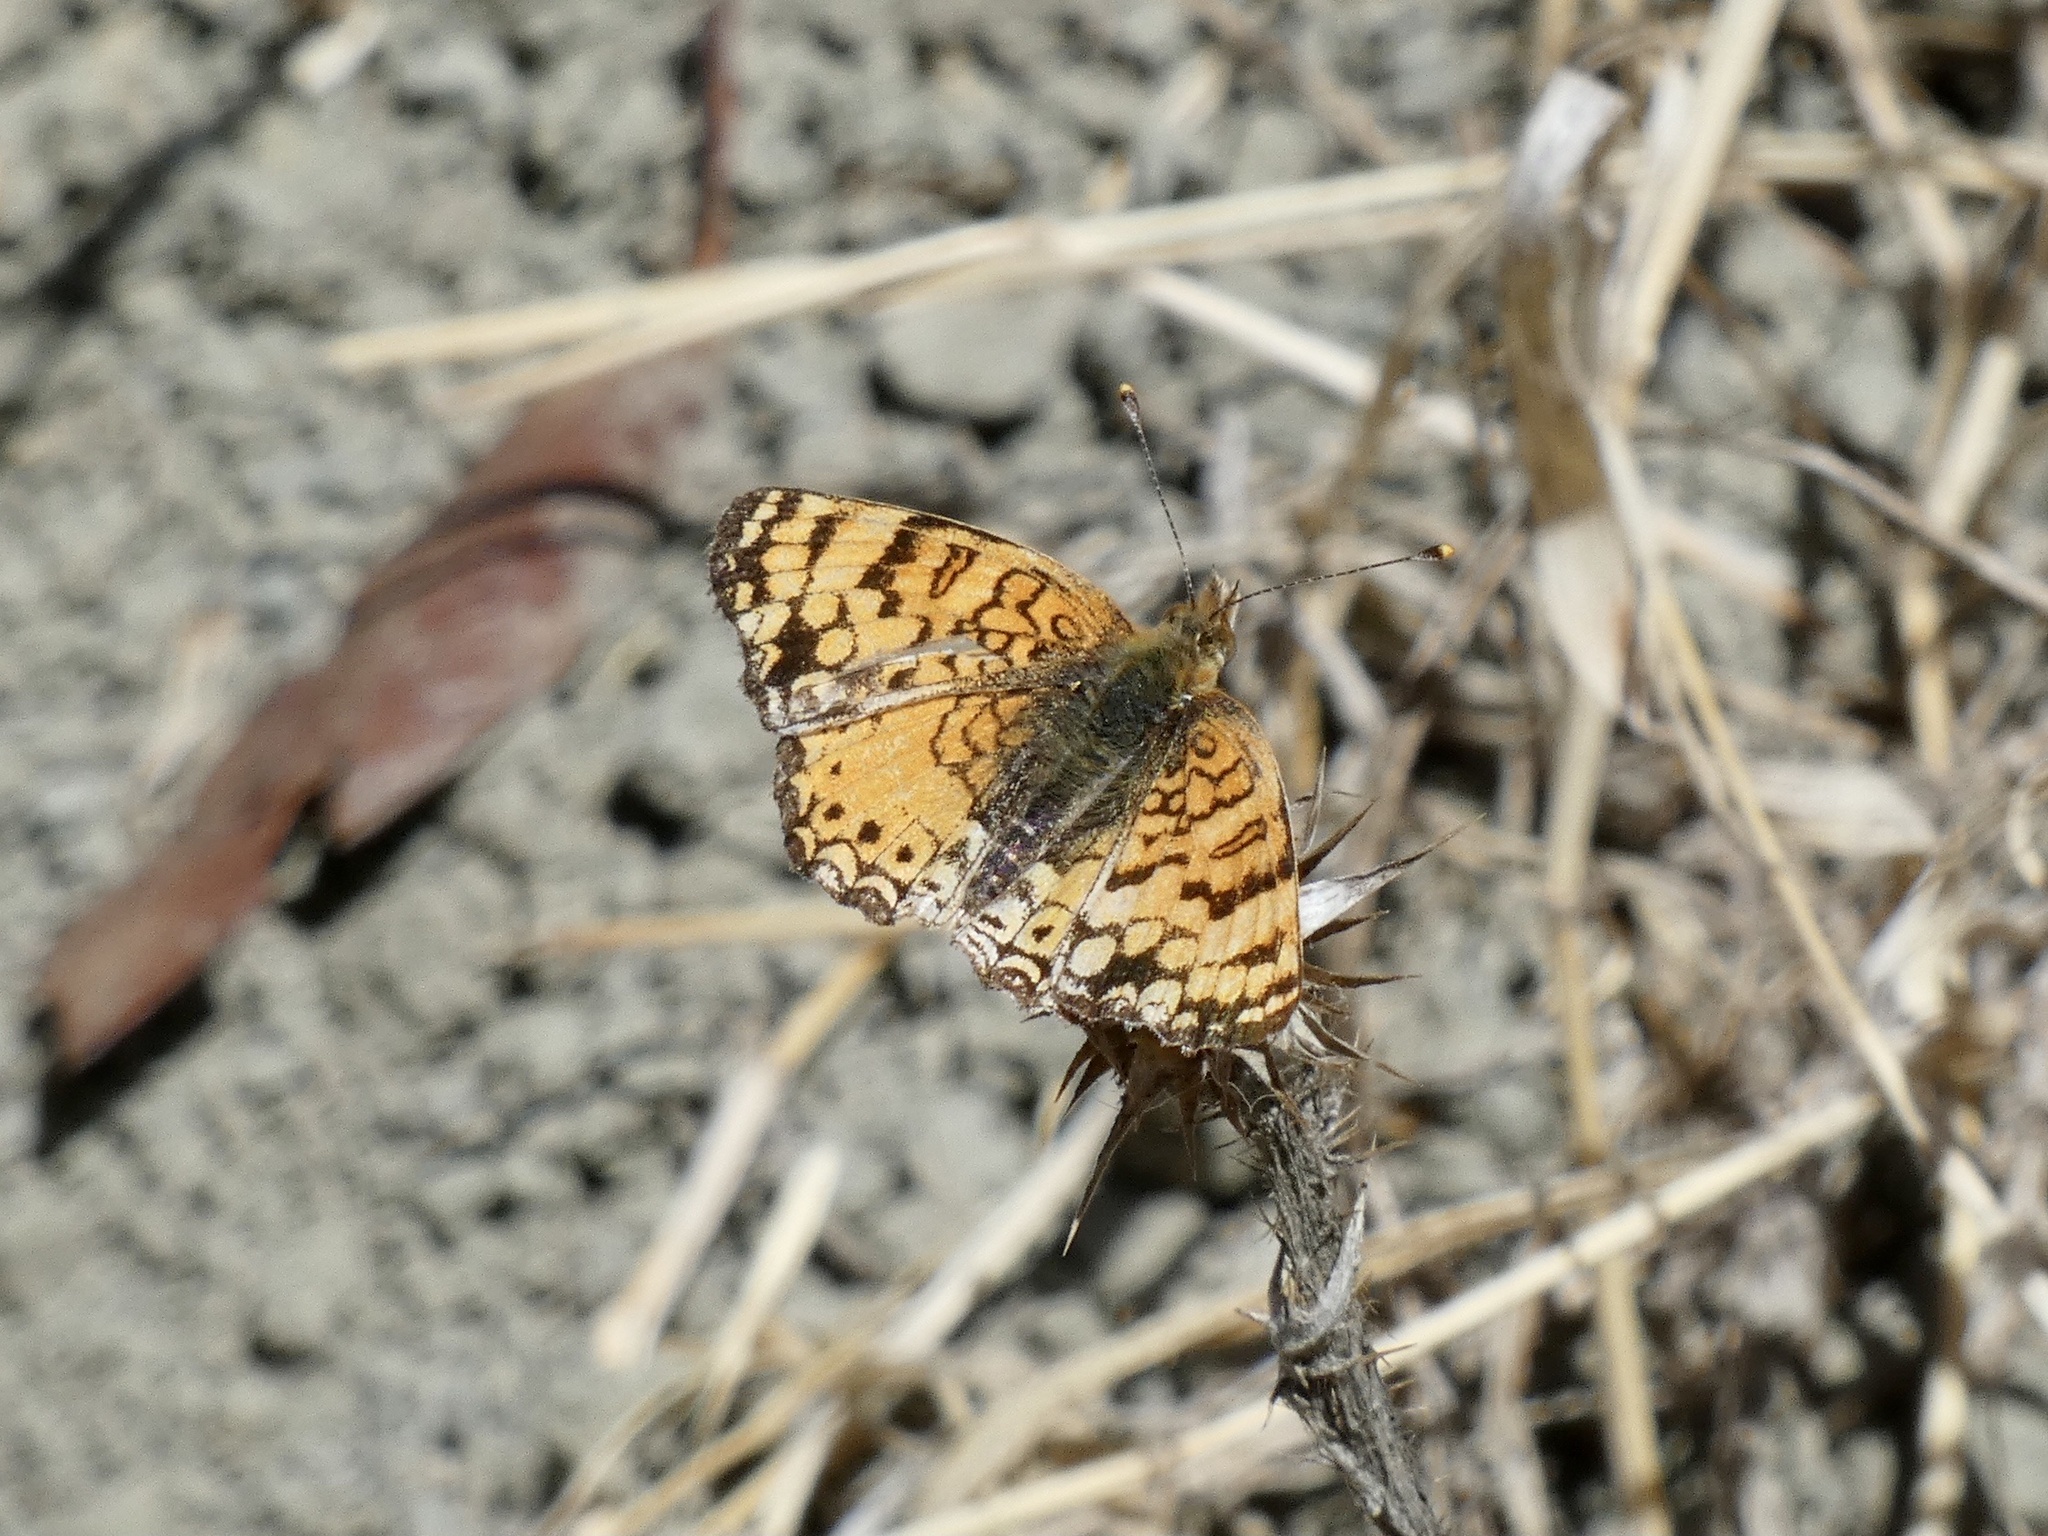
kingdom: Animalia
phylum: Arthropoda
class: Insecta
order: Lepidoptera
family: Nymphalidae
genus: Eresia
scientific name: Eresia aveyrona
